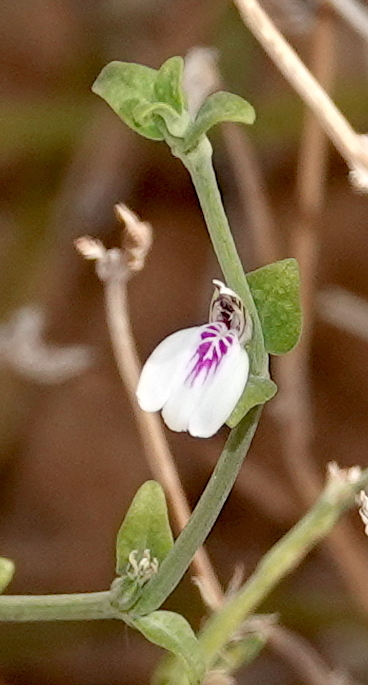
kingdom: Plantae
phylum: Tracheophyta
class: Magnoliopsida
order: Lamiales
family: Acanthaceae
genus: Justicia
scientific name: Justicia protracta
